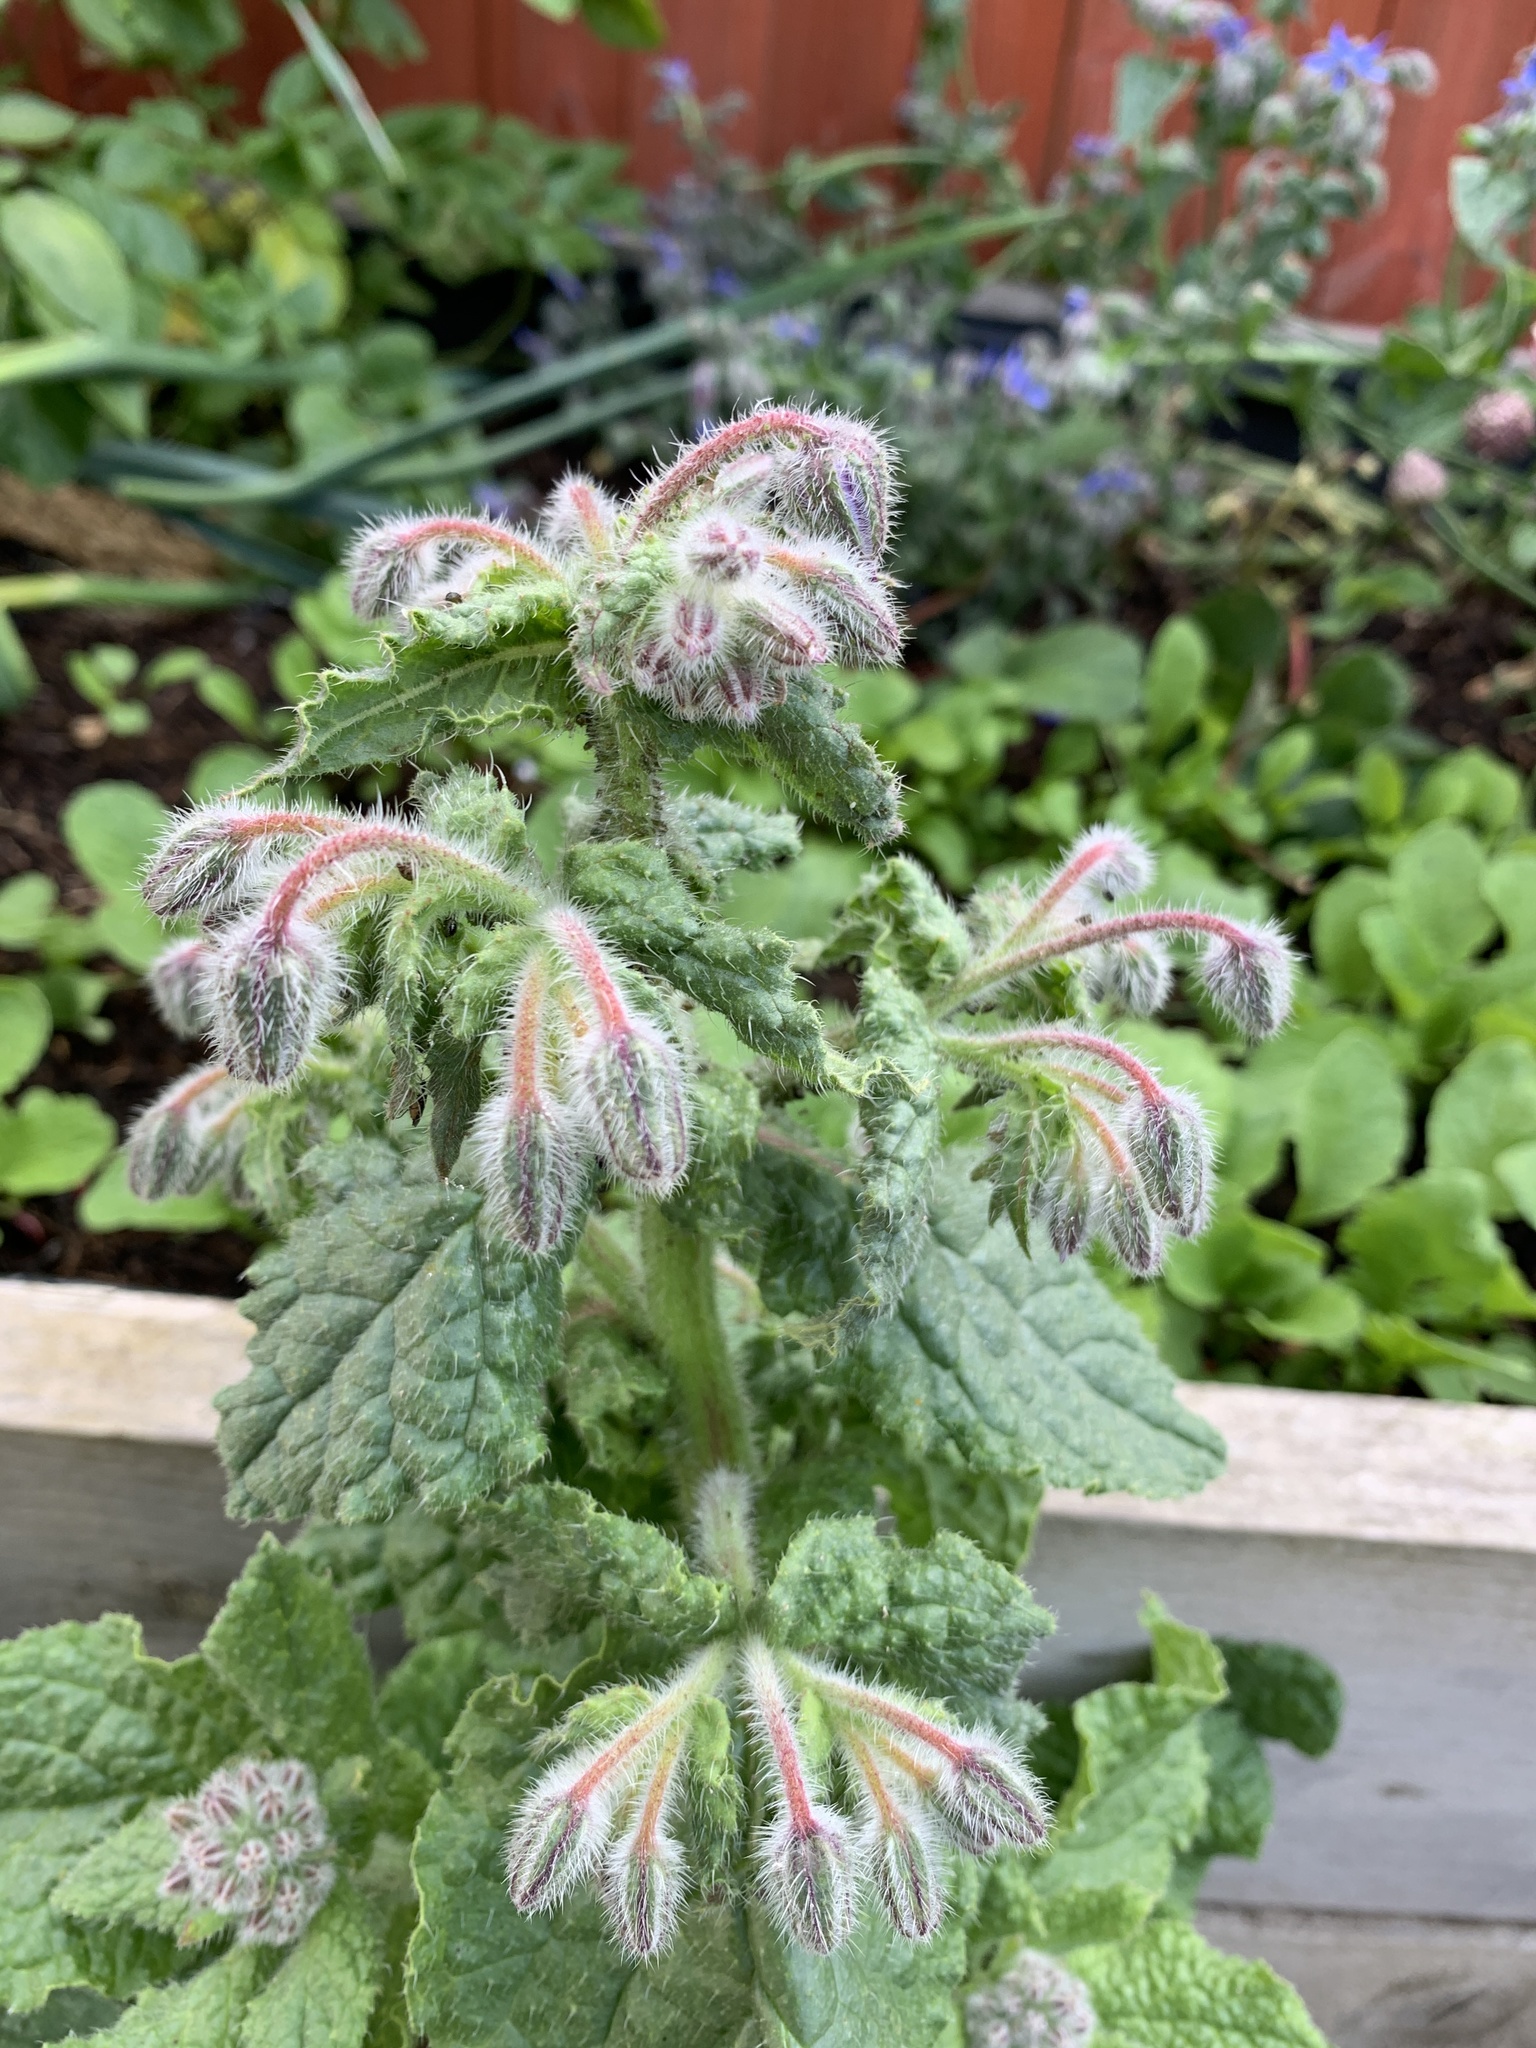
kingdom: Plantae
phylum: Tracheophyta
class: Magnoliopsida
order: Boraginales
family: Boraginaceae
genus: Borago
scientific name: Borago officinalis
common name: Borage
